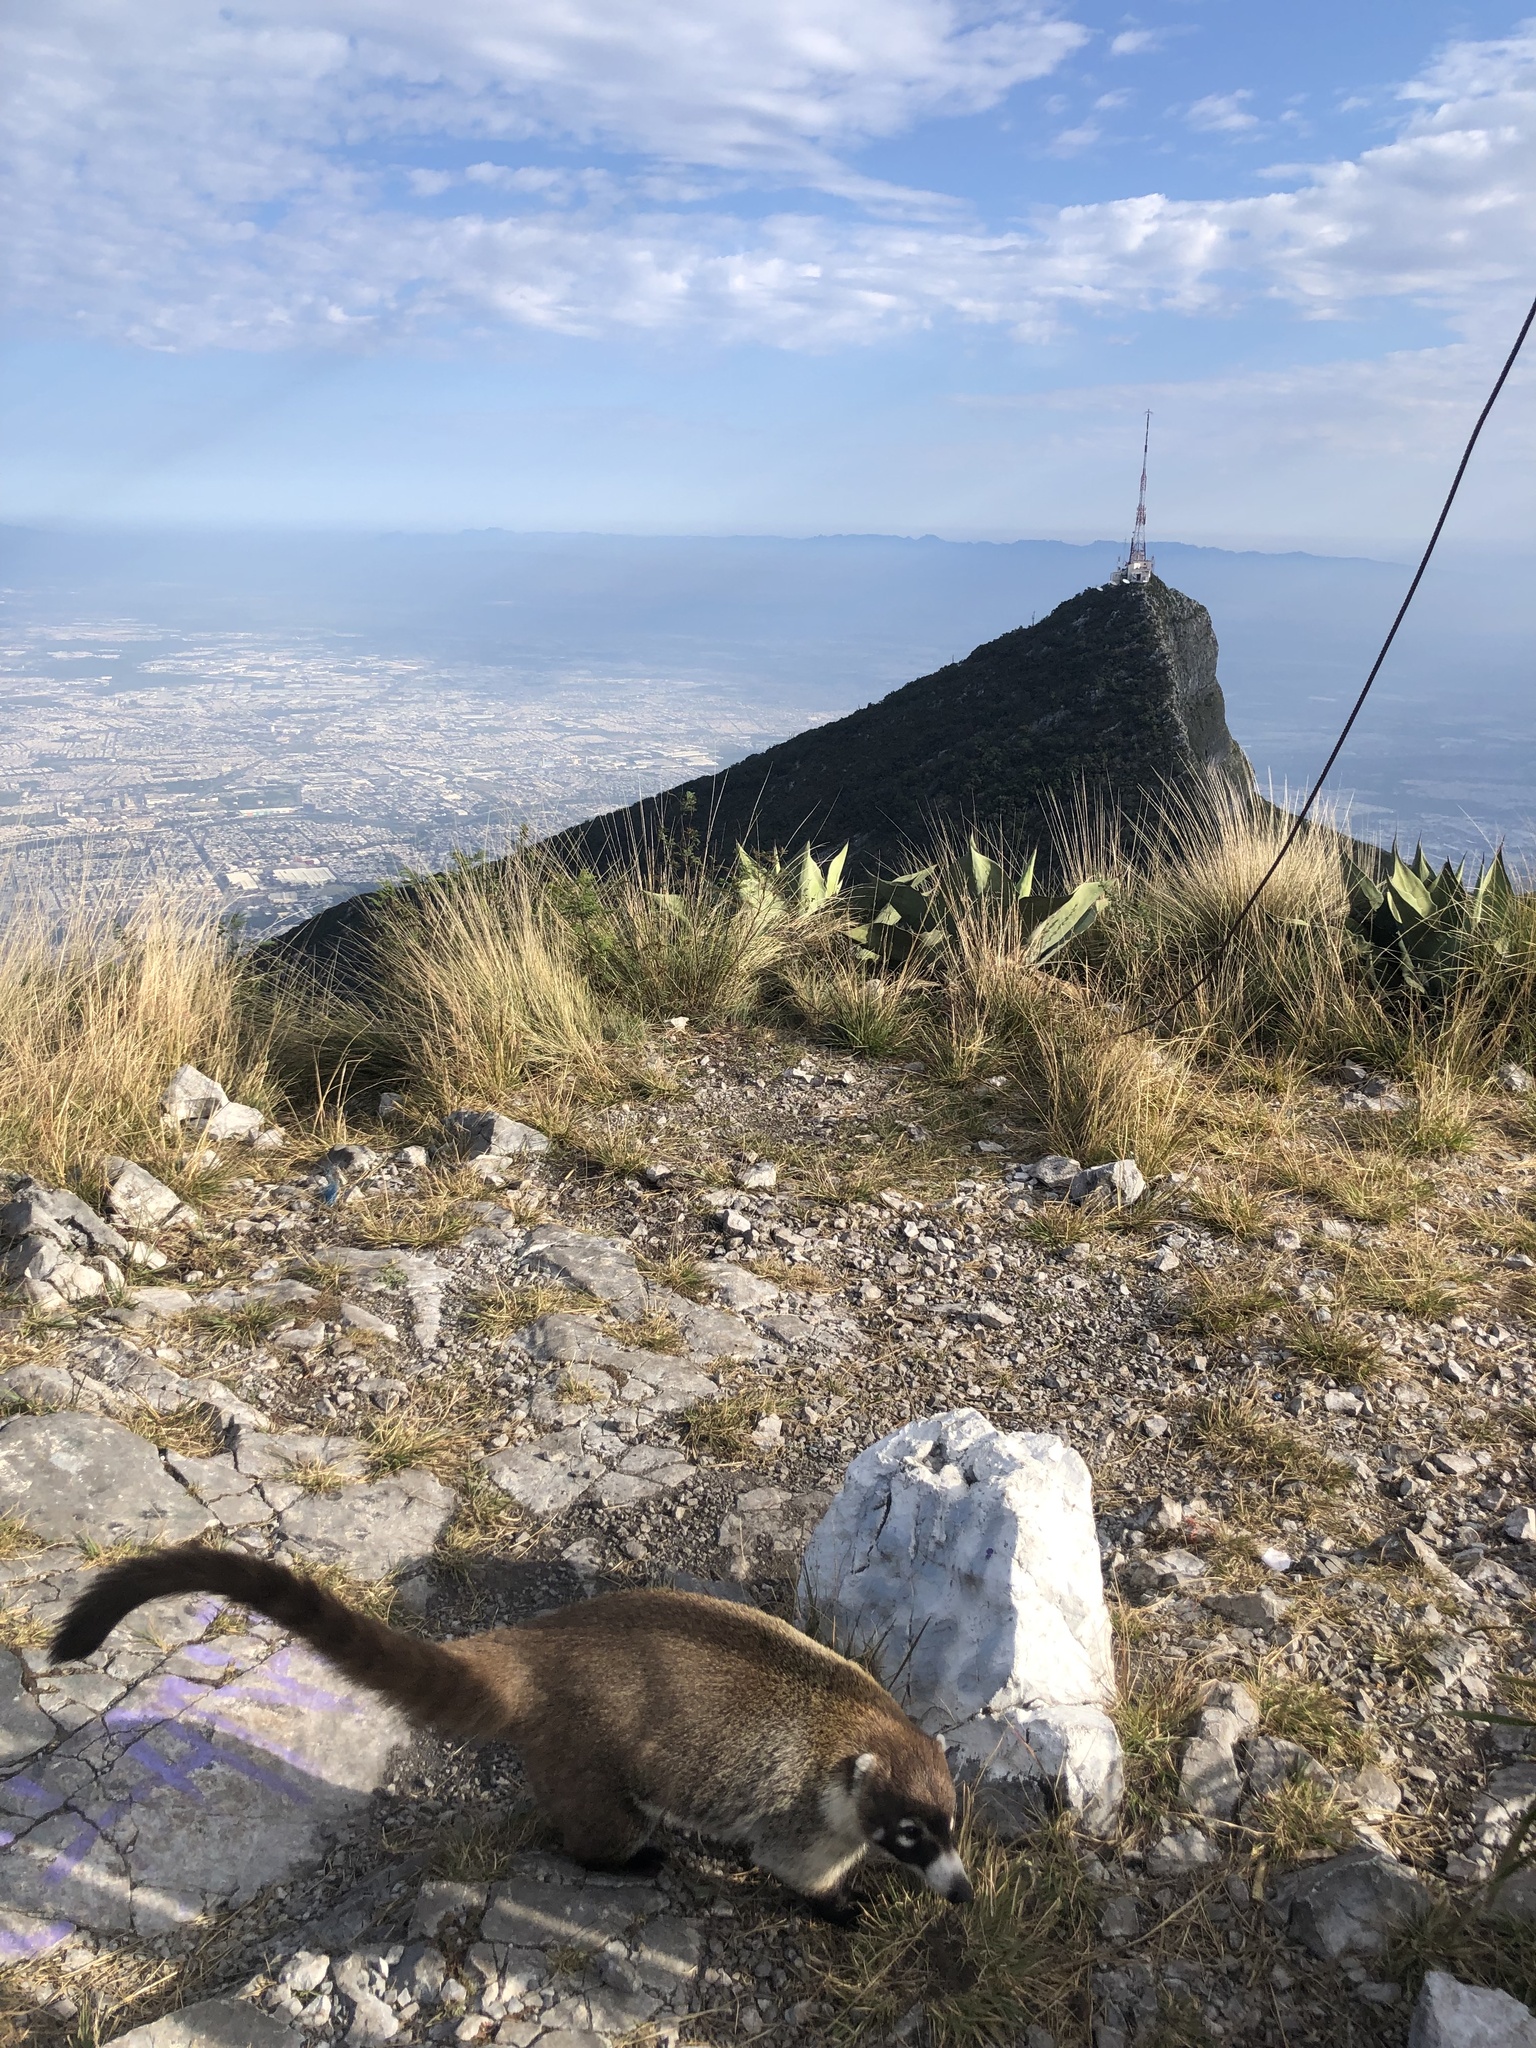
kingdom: Animalia
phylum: Chordata
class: Mammalia
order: Carnivora
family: Procyonidae
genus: Nasua
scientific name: Nasua narica
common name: White-nosed coati
